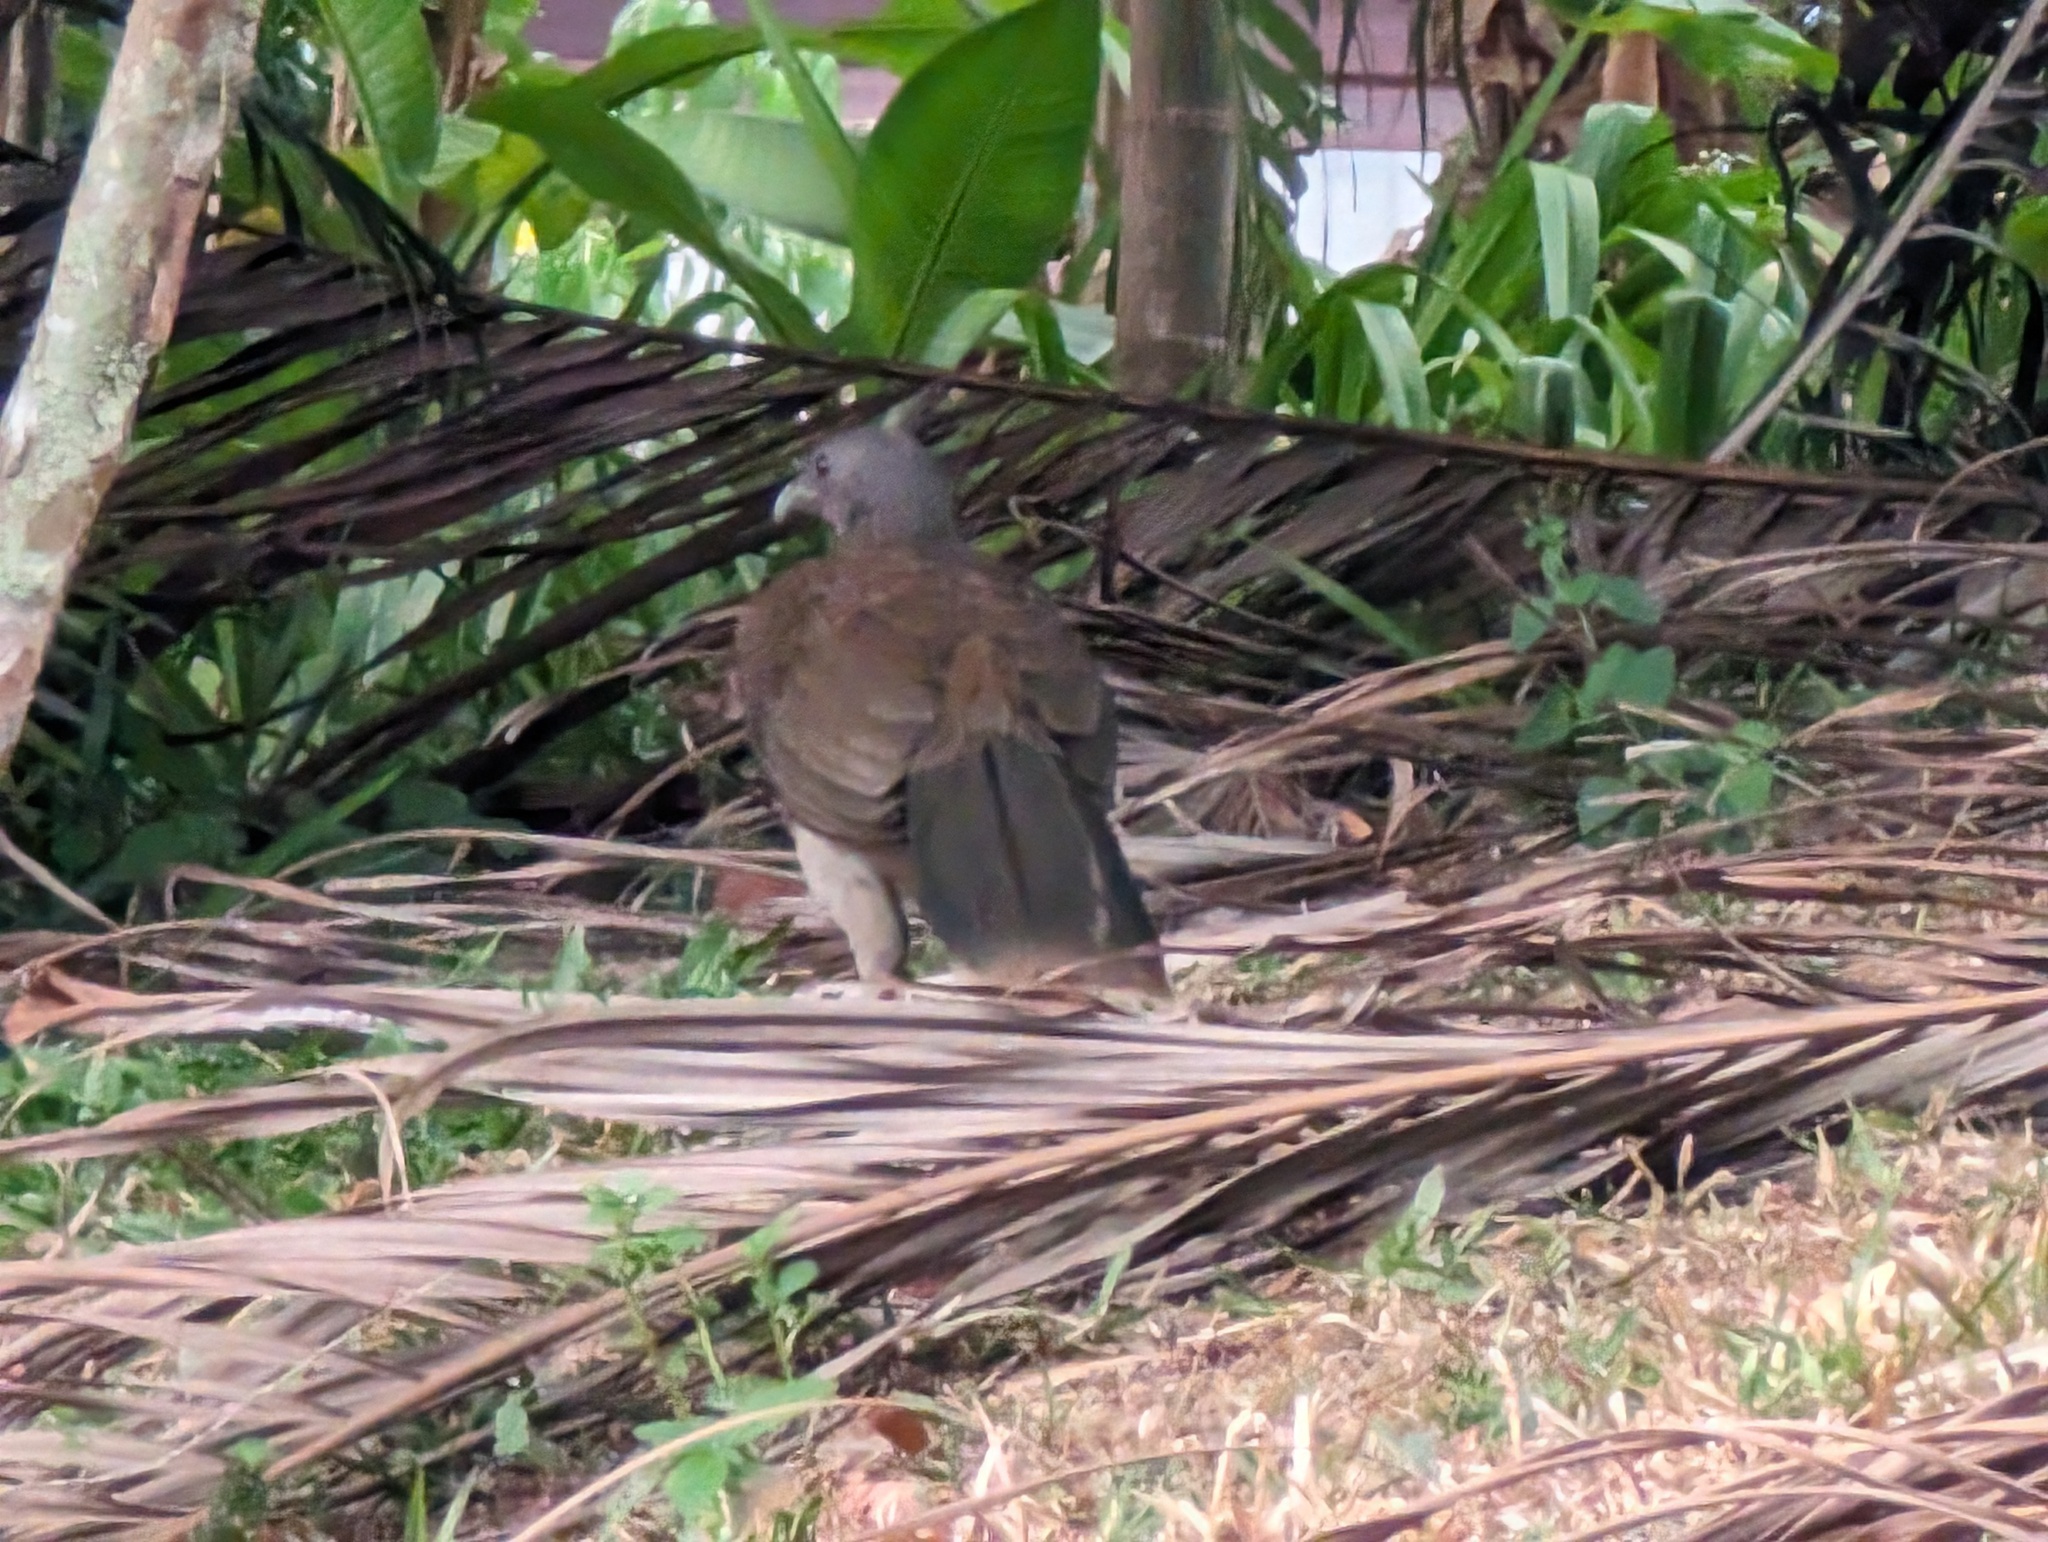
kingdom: Animalia
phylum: Chordata
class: Aves
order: Galliformes
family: Cracidae
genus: Ortalis
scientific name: Ortalis cinereiceps
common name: Grey-headed chachalaca
